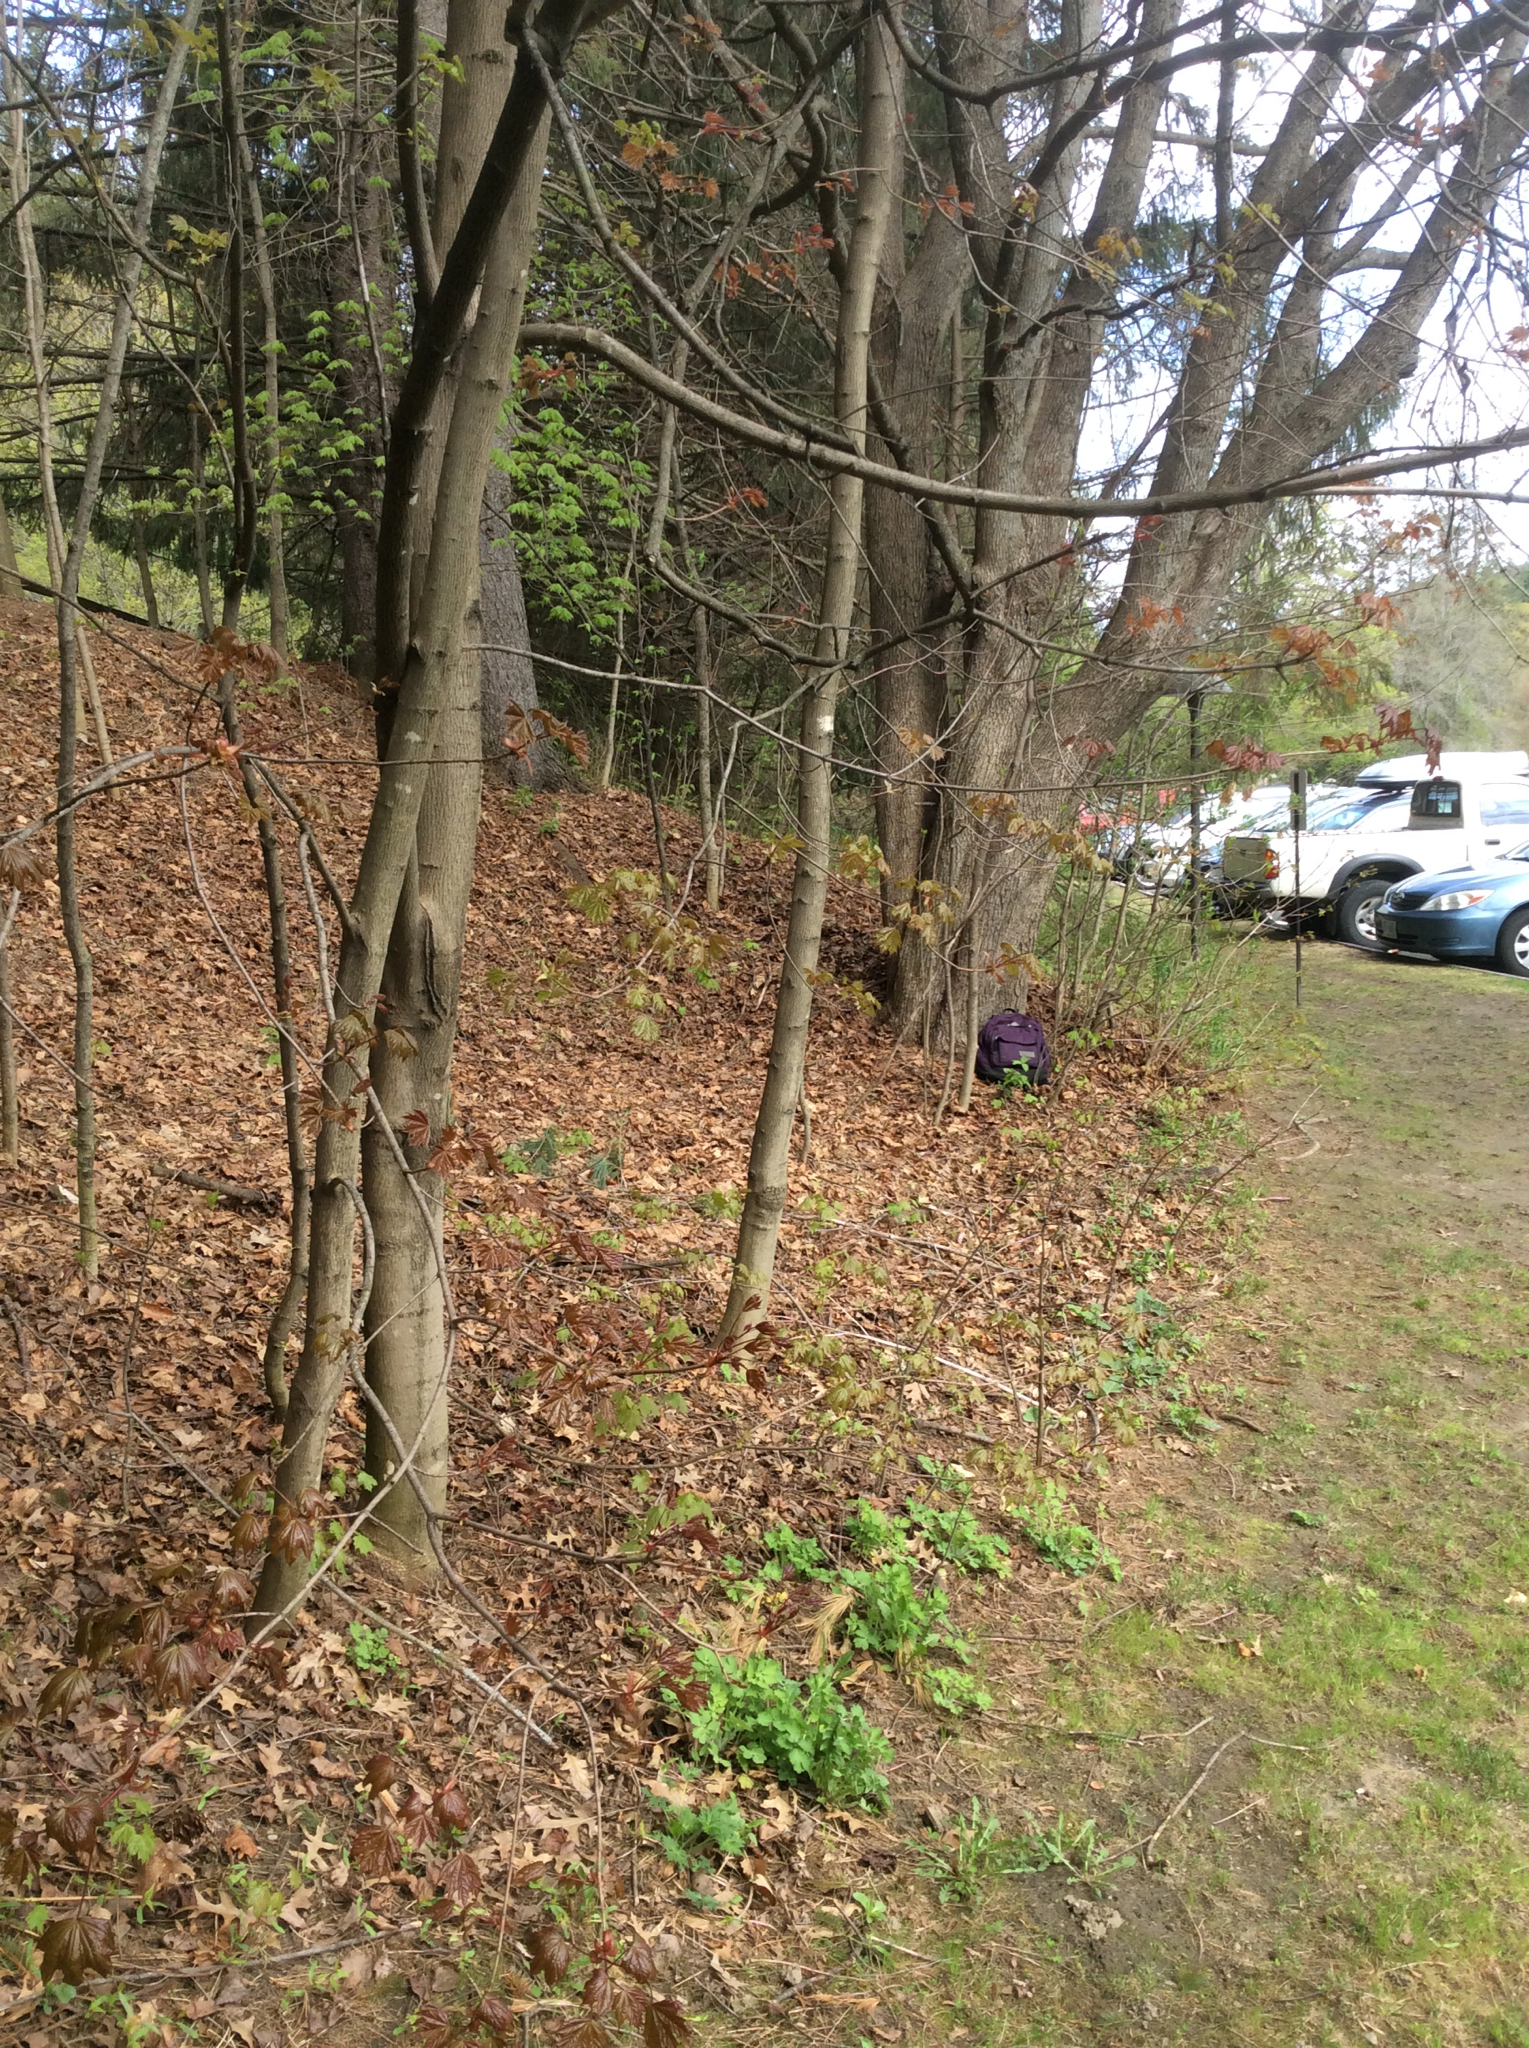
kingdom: Plantae
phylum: Tracheophyta
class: Magnoliopsida
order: Sapindales
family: Sapindaceae
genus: Acer
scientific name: Acer platanoides
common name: Norway maple
